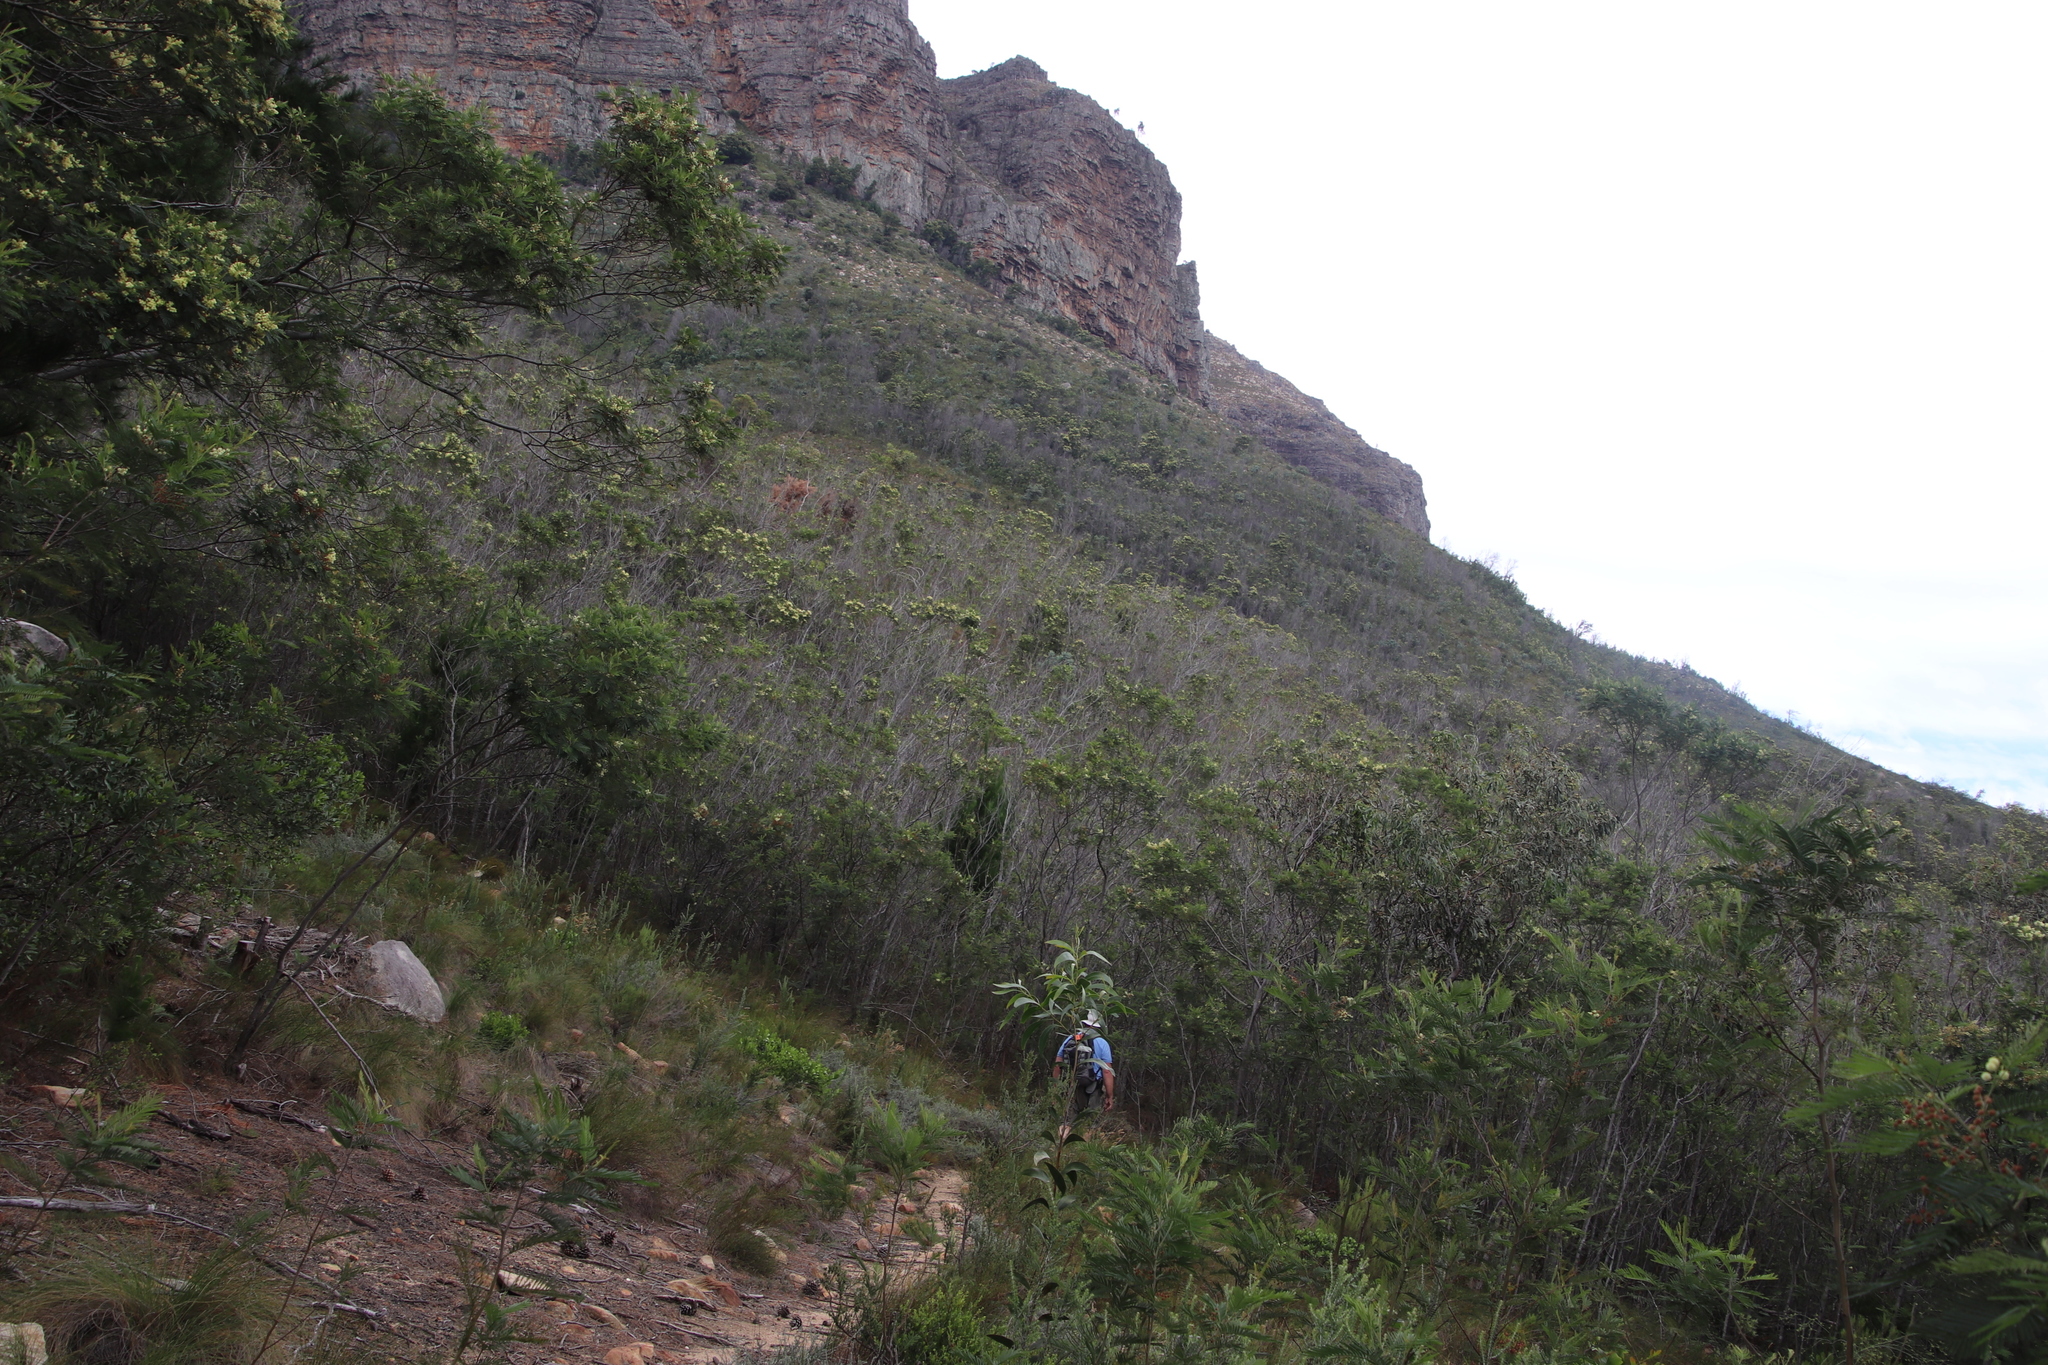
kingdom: Plantae
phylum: Tracheophyta
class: Magnoliopsida
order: Fabales
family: Fabaceae
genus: Acacia
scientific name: Acacia mearnsii
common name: Black wattle
